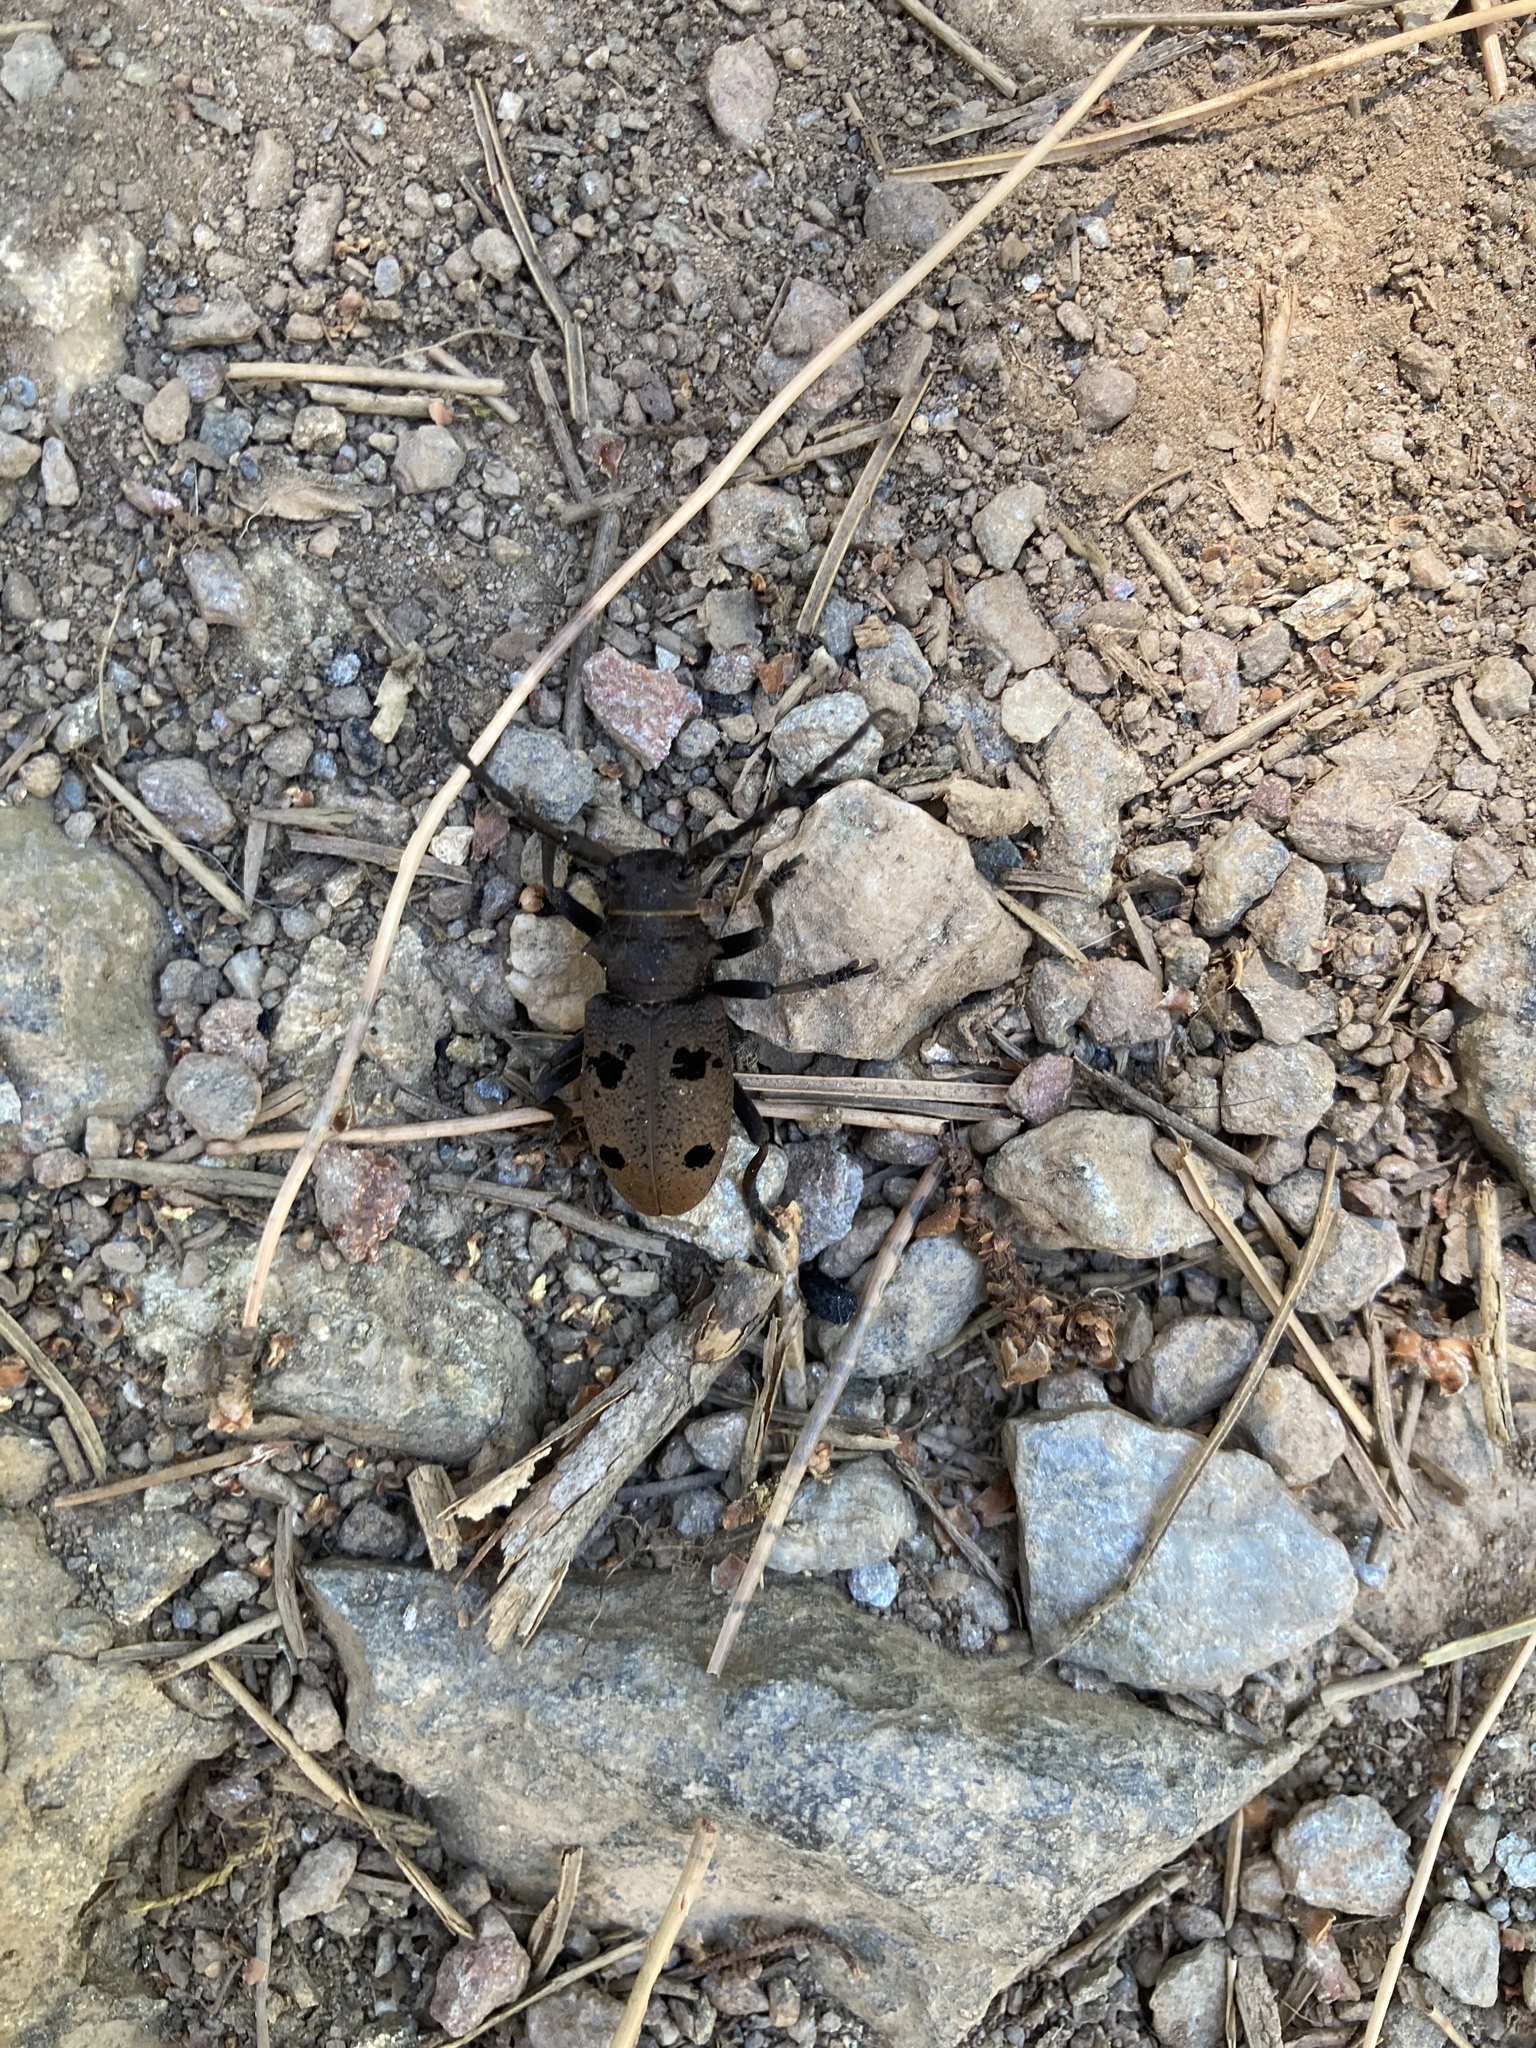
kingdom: Animalia
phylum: Arthropoda
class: Insecta
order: Coleoptera
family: Cerambycidae
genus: Herophila
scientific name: Herophila tristis
